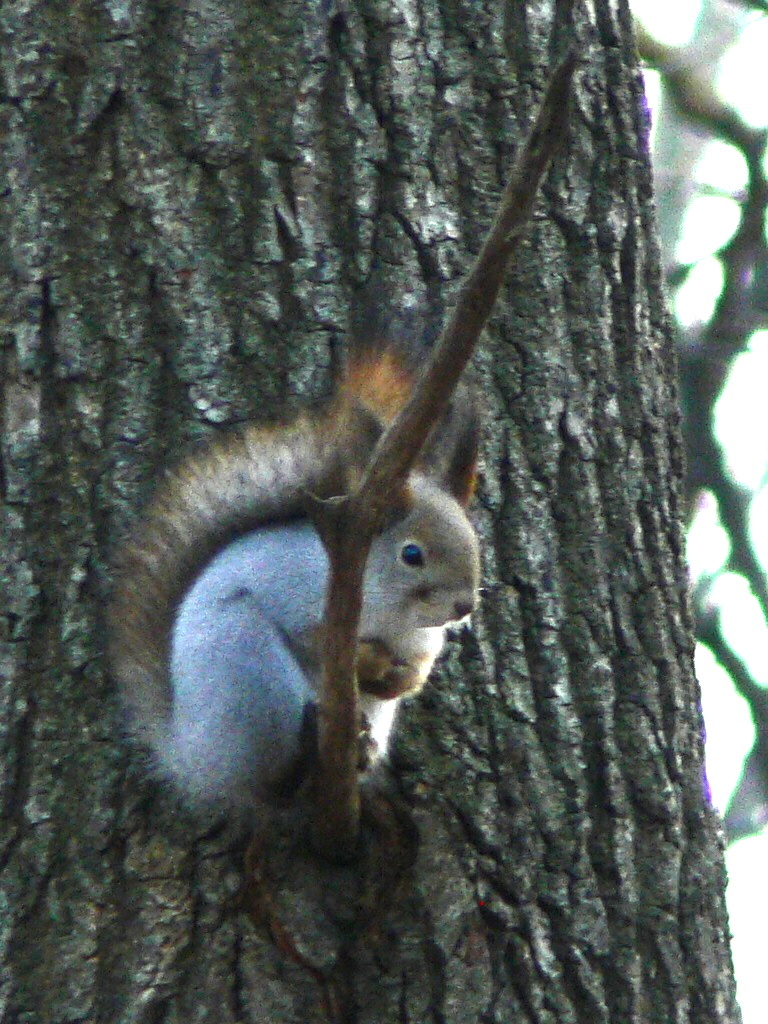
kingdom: Animalia
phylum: Chordata
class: Mammalia
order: Rodentia
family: Sciuridae
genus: Sciurus
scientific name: Sciurus vulgaris
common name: Eurasian red squirrel
